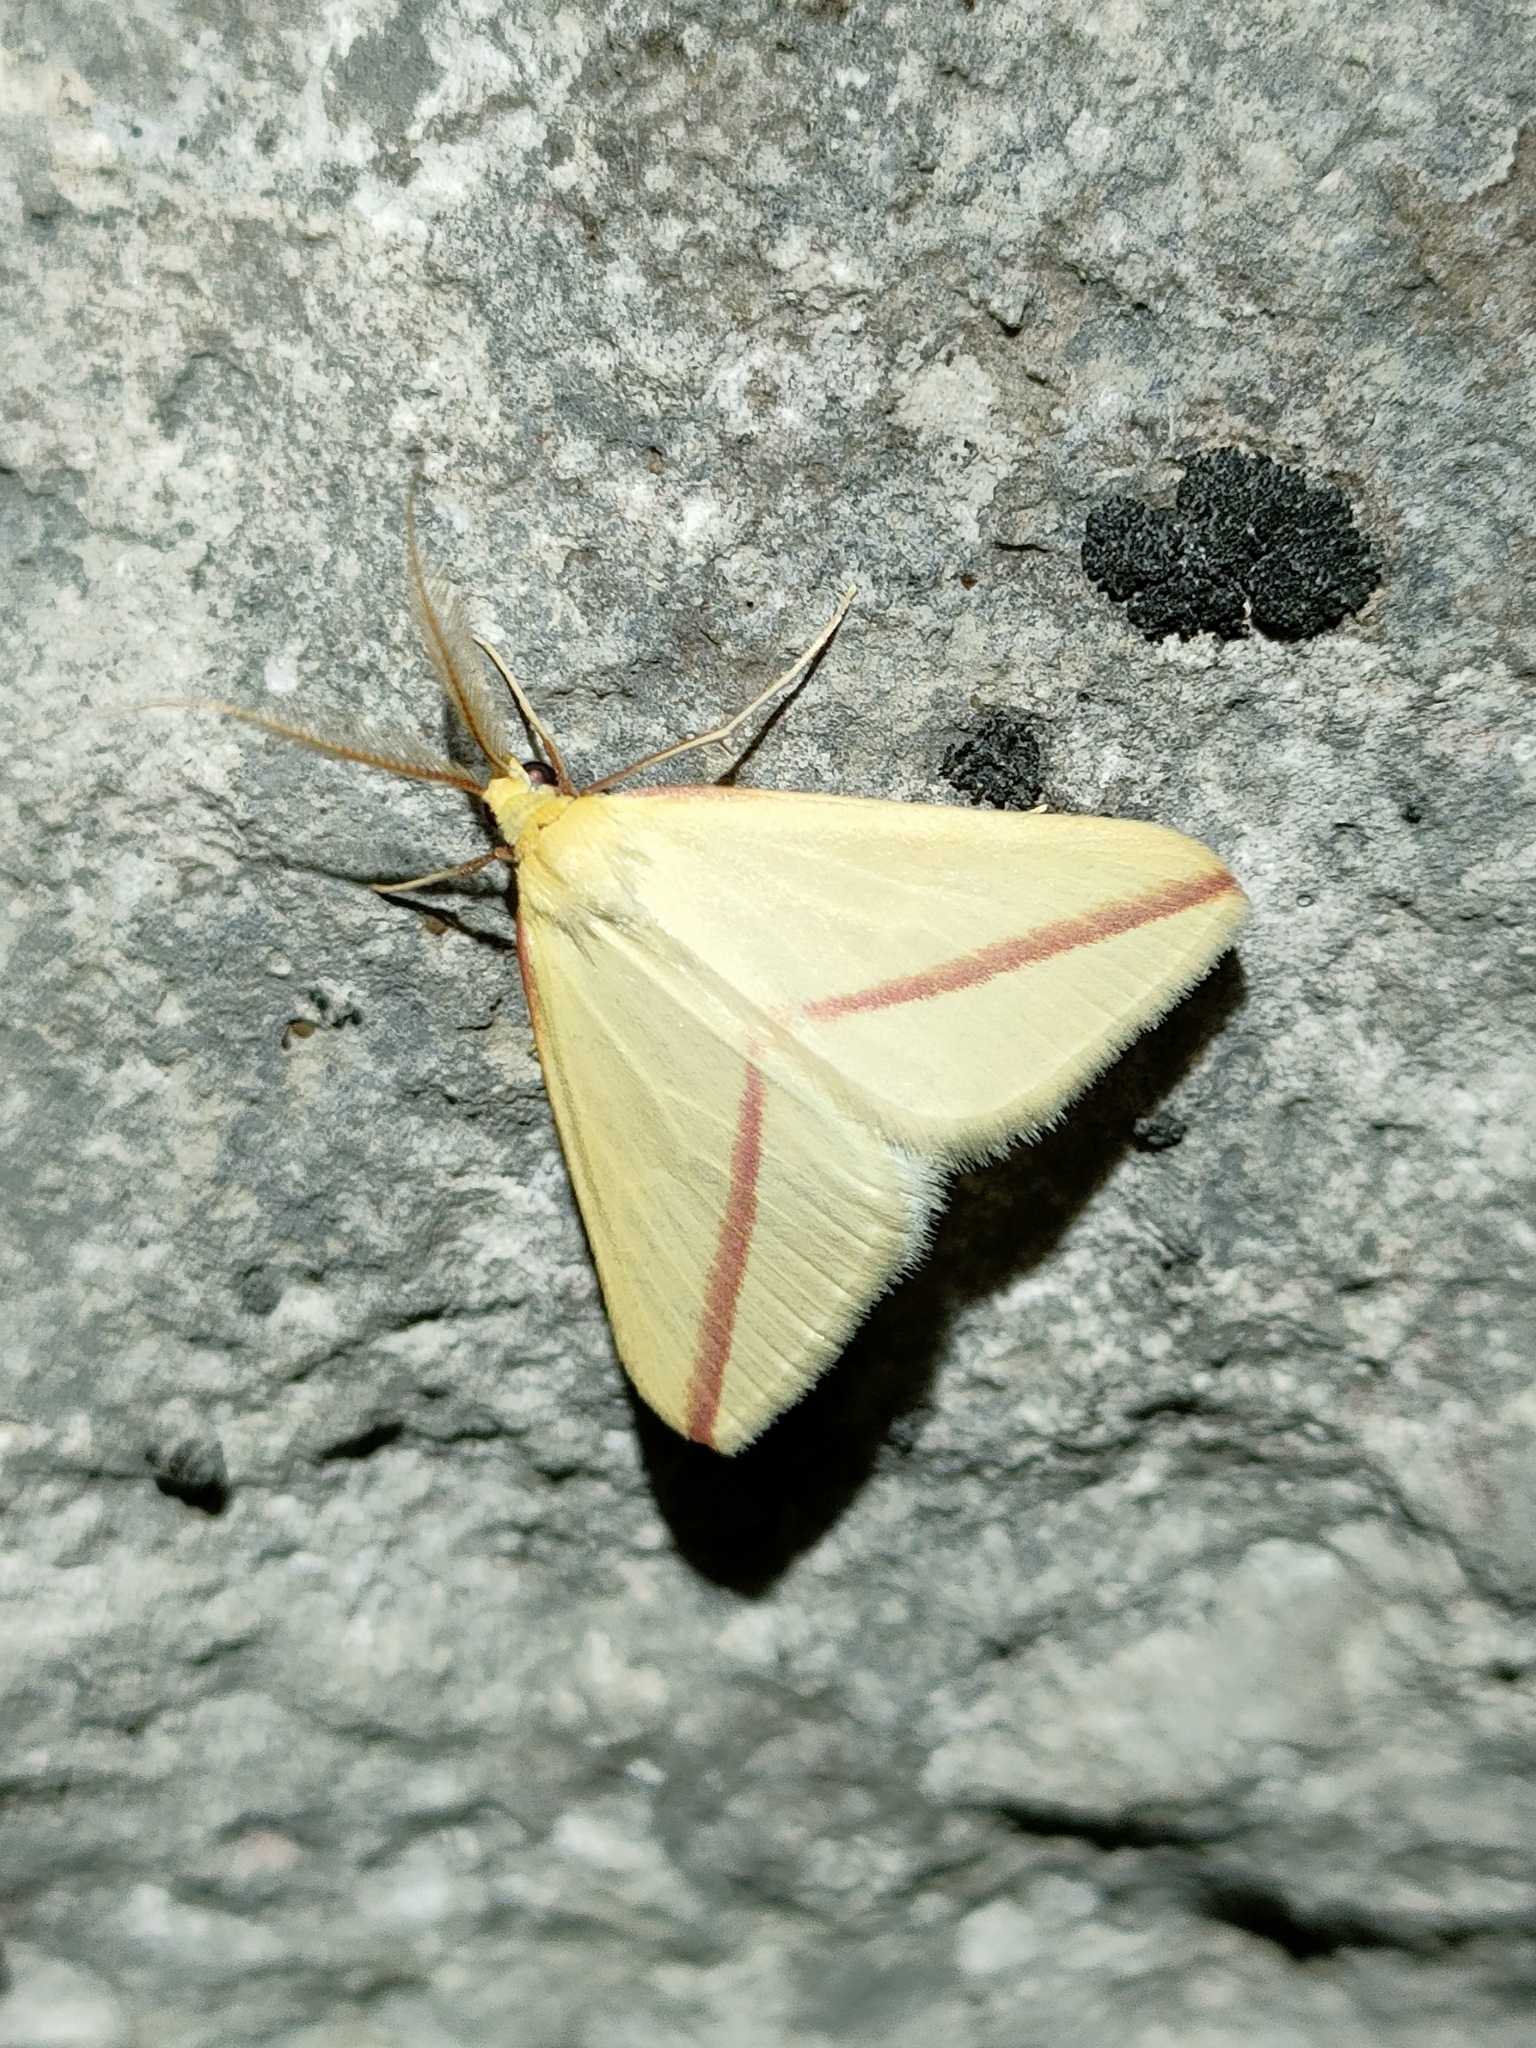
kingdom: Animalia
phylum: Arthropoda
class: Insecta
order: Lepidoptera
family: Geometridae
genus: Rhodometra
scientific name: Rhodometra sacraria
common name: Vestal
